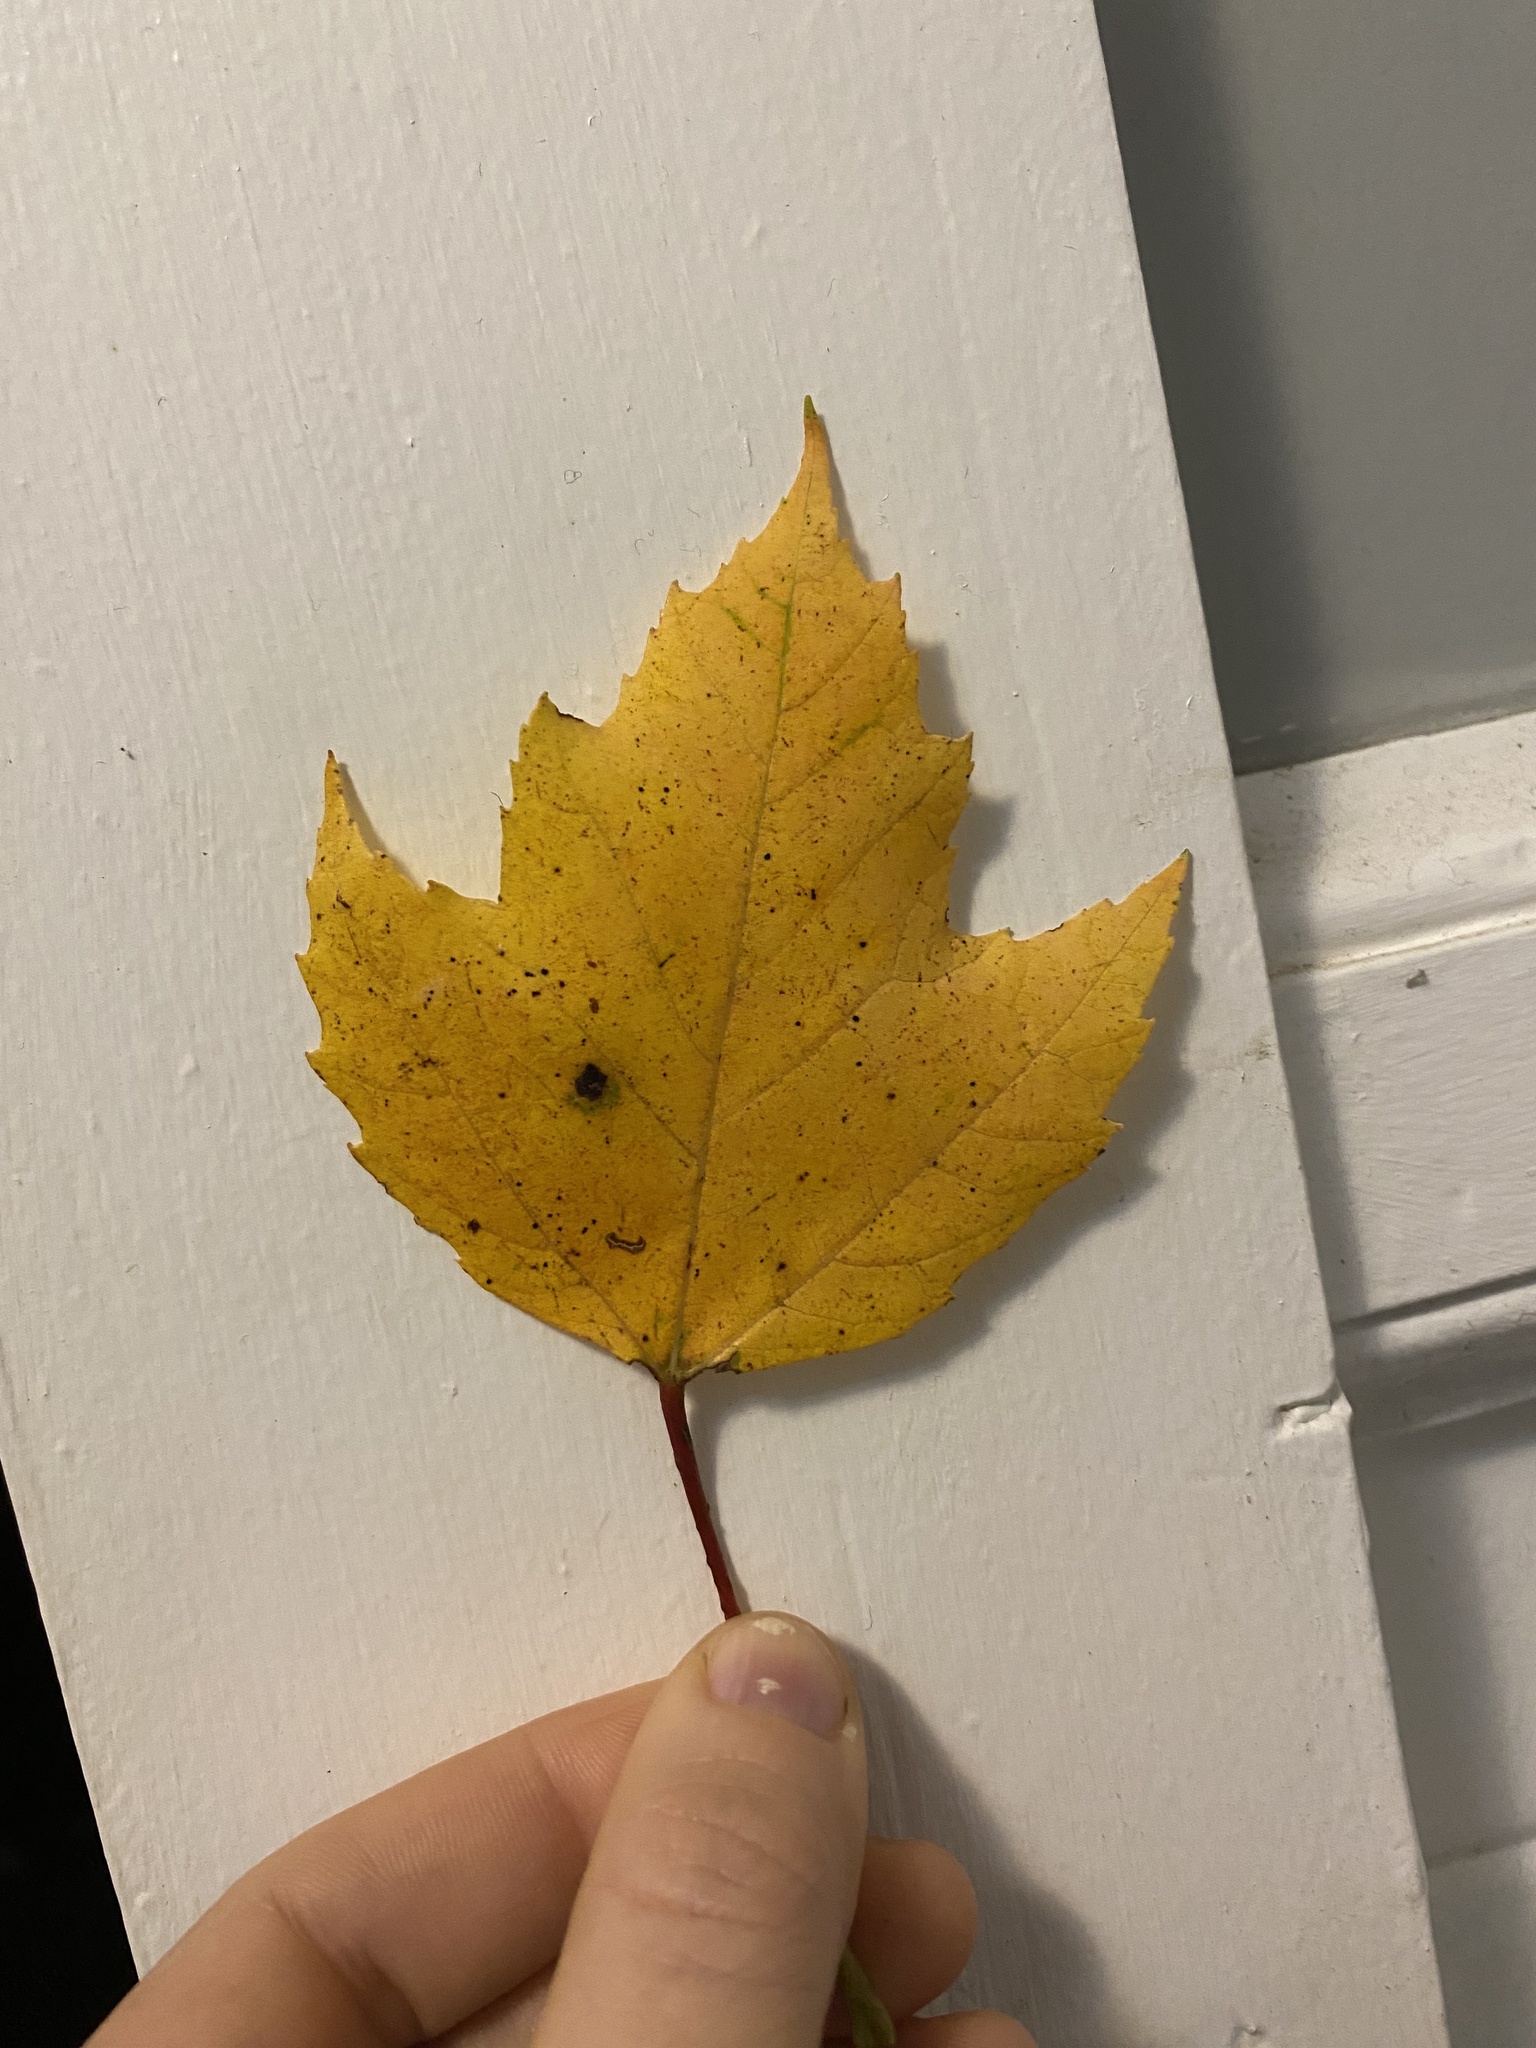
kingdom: Plantae
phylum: Tracheophyta
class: Magnoliopsida
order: Sapindales
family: Sapindaceae
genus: Acer
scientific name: Acer rubrum
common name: Red maple
